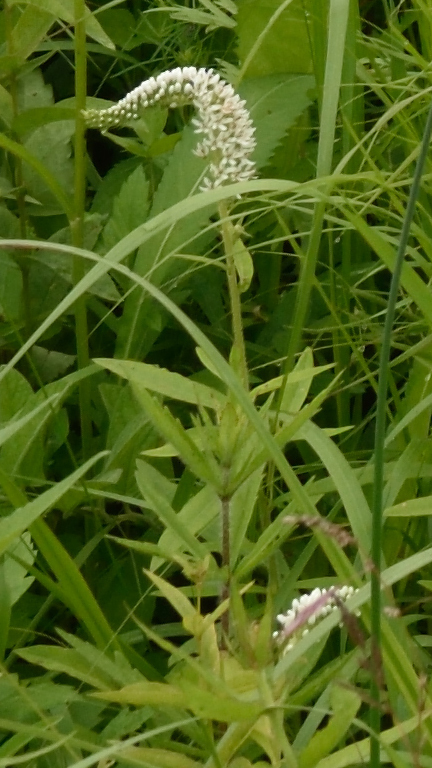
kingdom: Plantae
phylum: Tracheophyta
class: Magnoliopsida
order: Ericales
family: Primulaceae
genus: Lysimachia
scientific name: Lysimachia barystachys
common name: Manchurian yellow loosestrife
